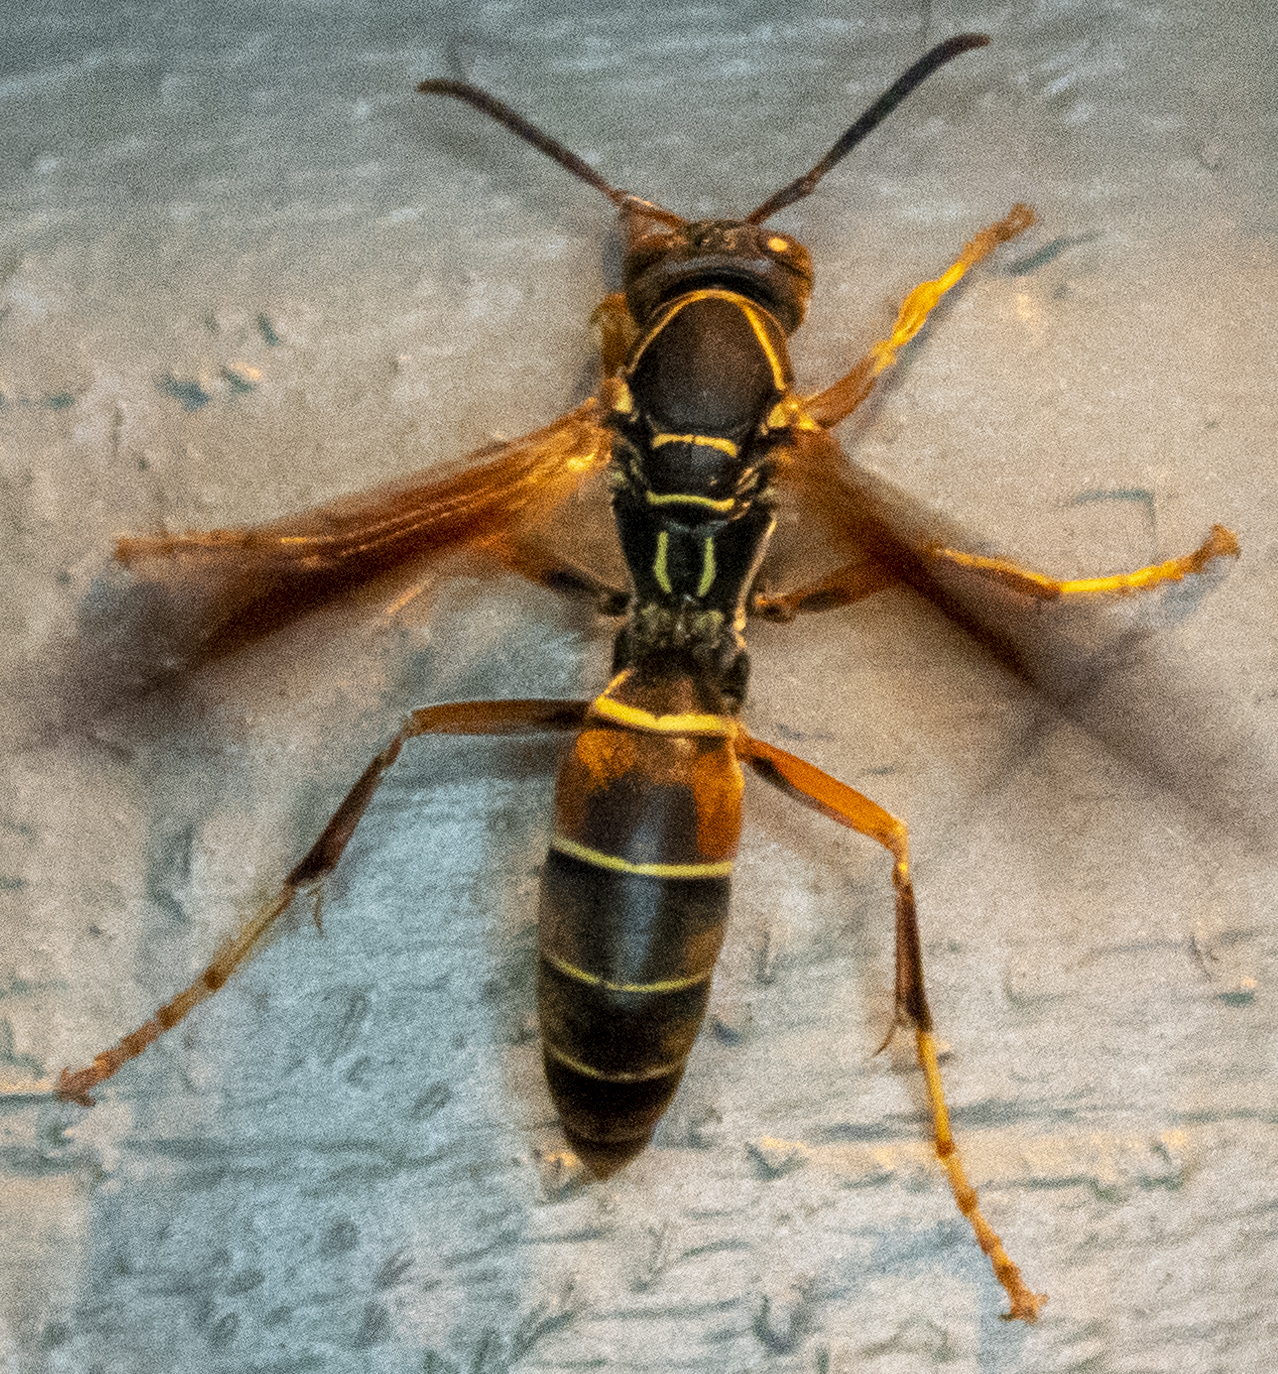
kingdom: Animalia
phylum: Arthropoda
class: Insecta
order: Hymenoptera
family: Eumenidae
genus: Polistes
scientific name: Polistes fuscatus
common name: Dark paper wasp
